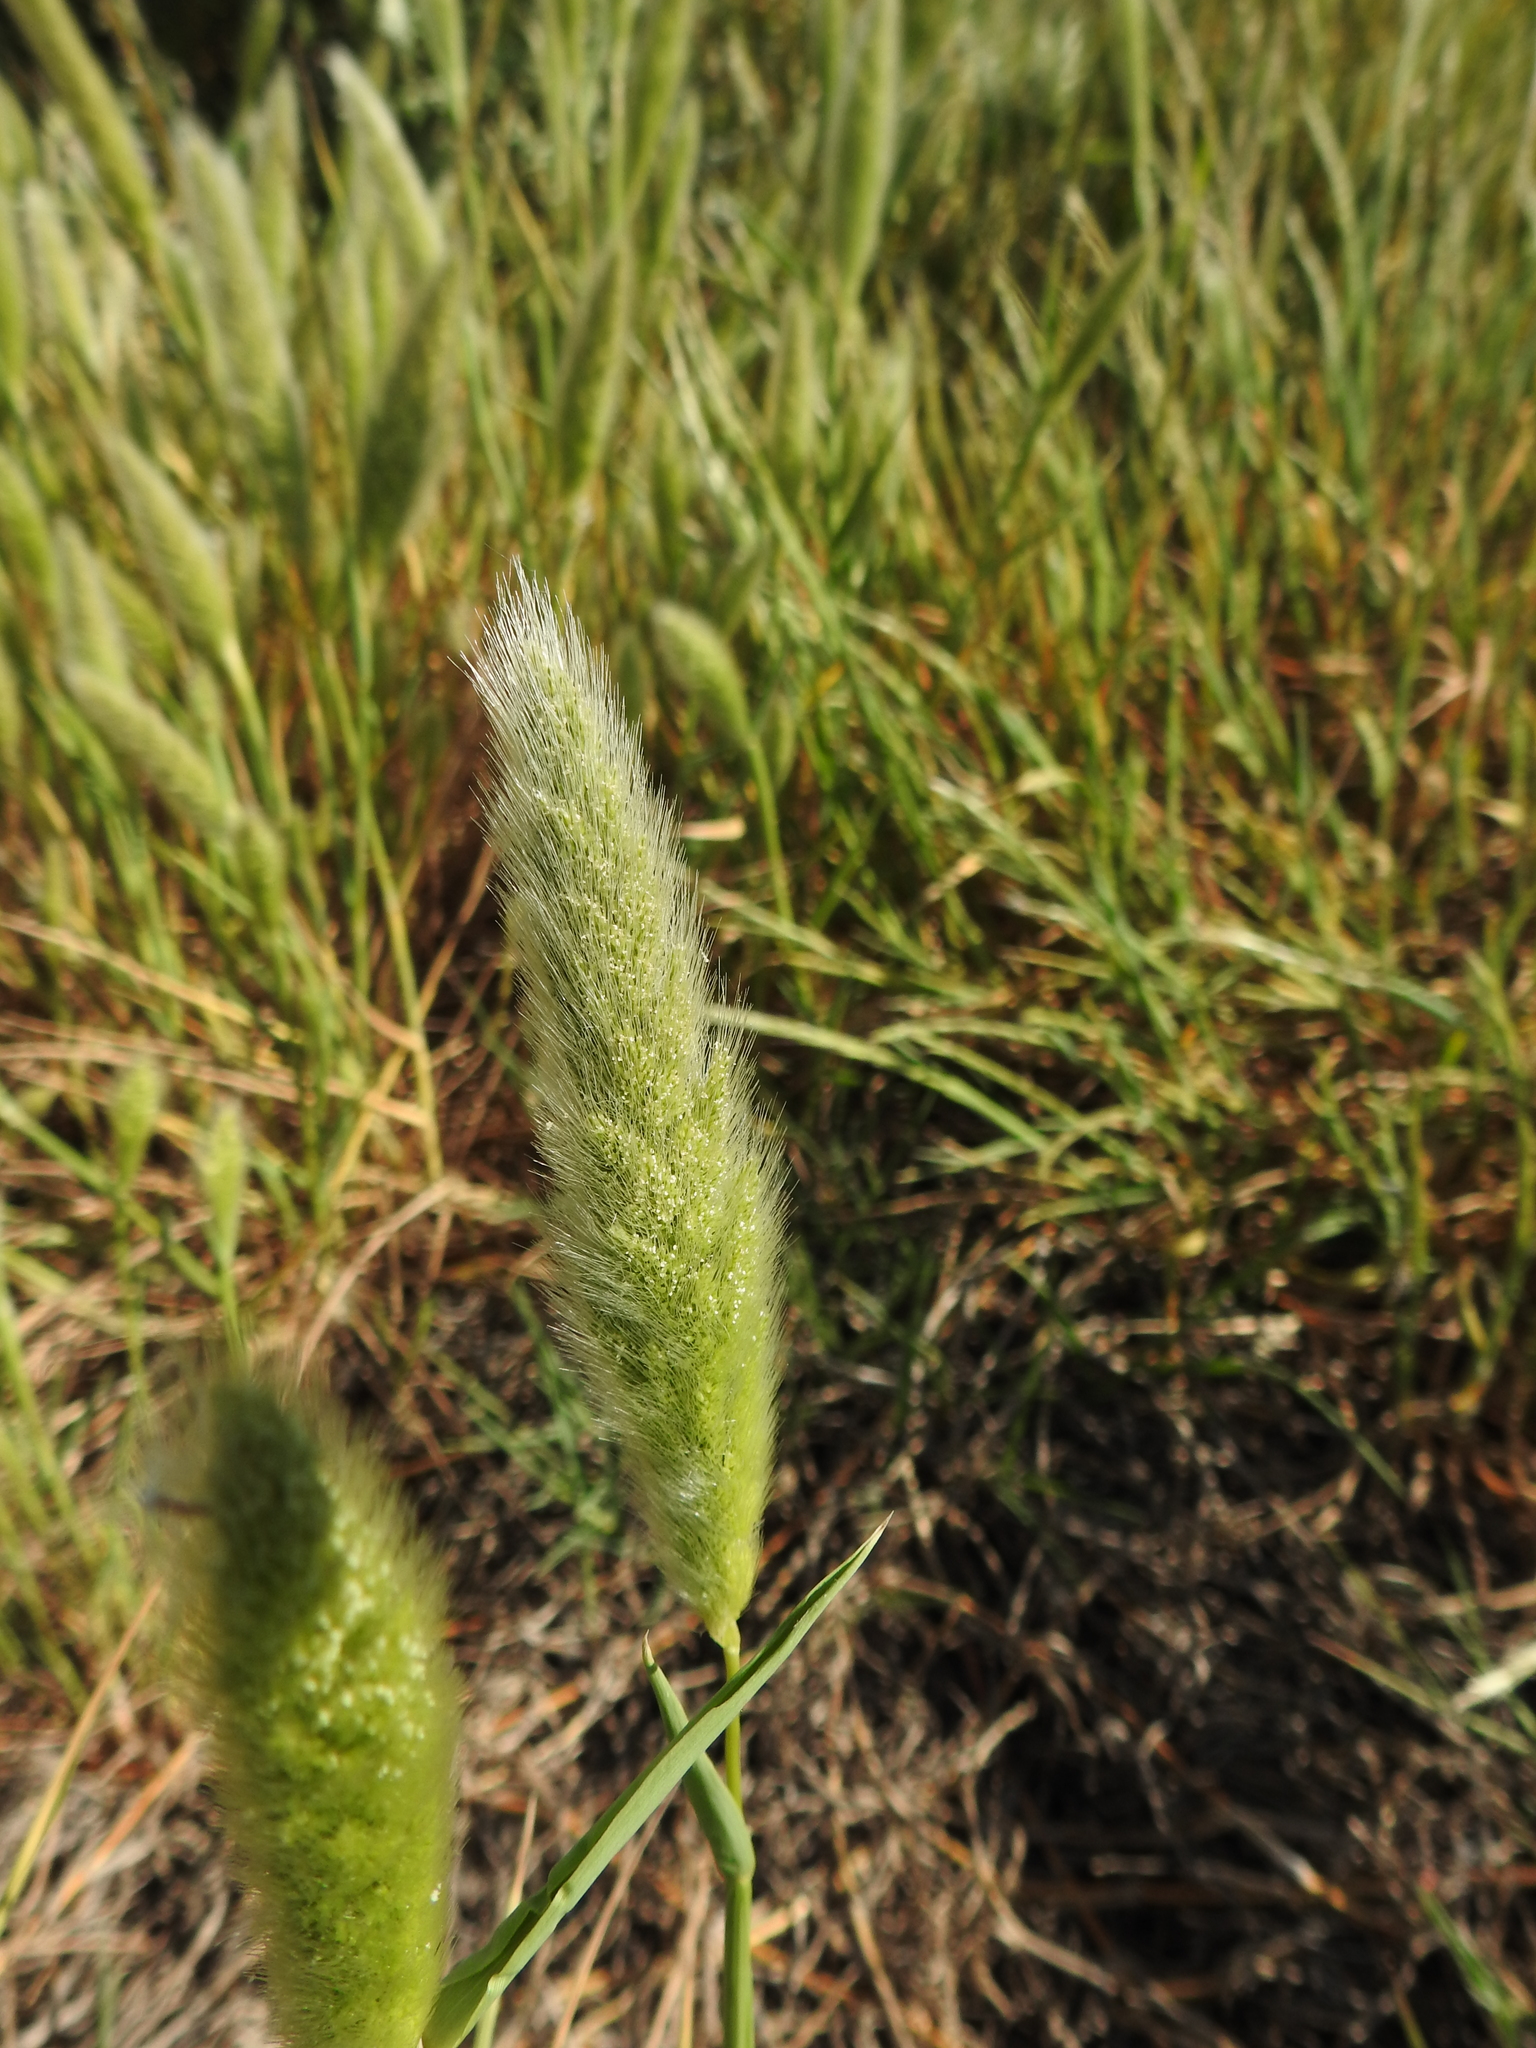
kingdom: Plantae
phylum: Tracheophyta
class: Liliopsida
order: Poales
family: Poaceae
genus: Polypogon
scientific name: Polypogon monspeliensis
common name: Annual rabbitsfoot grass
